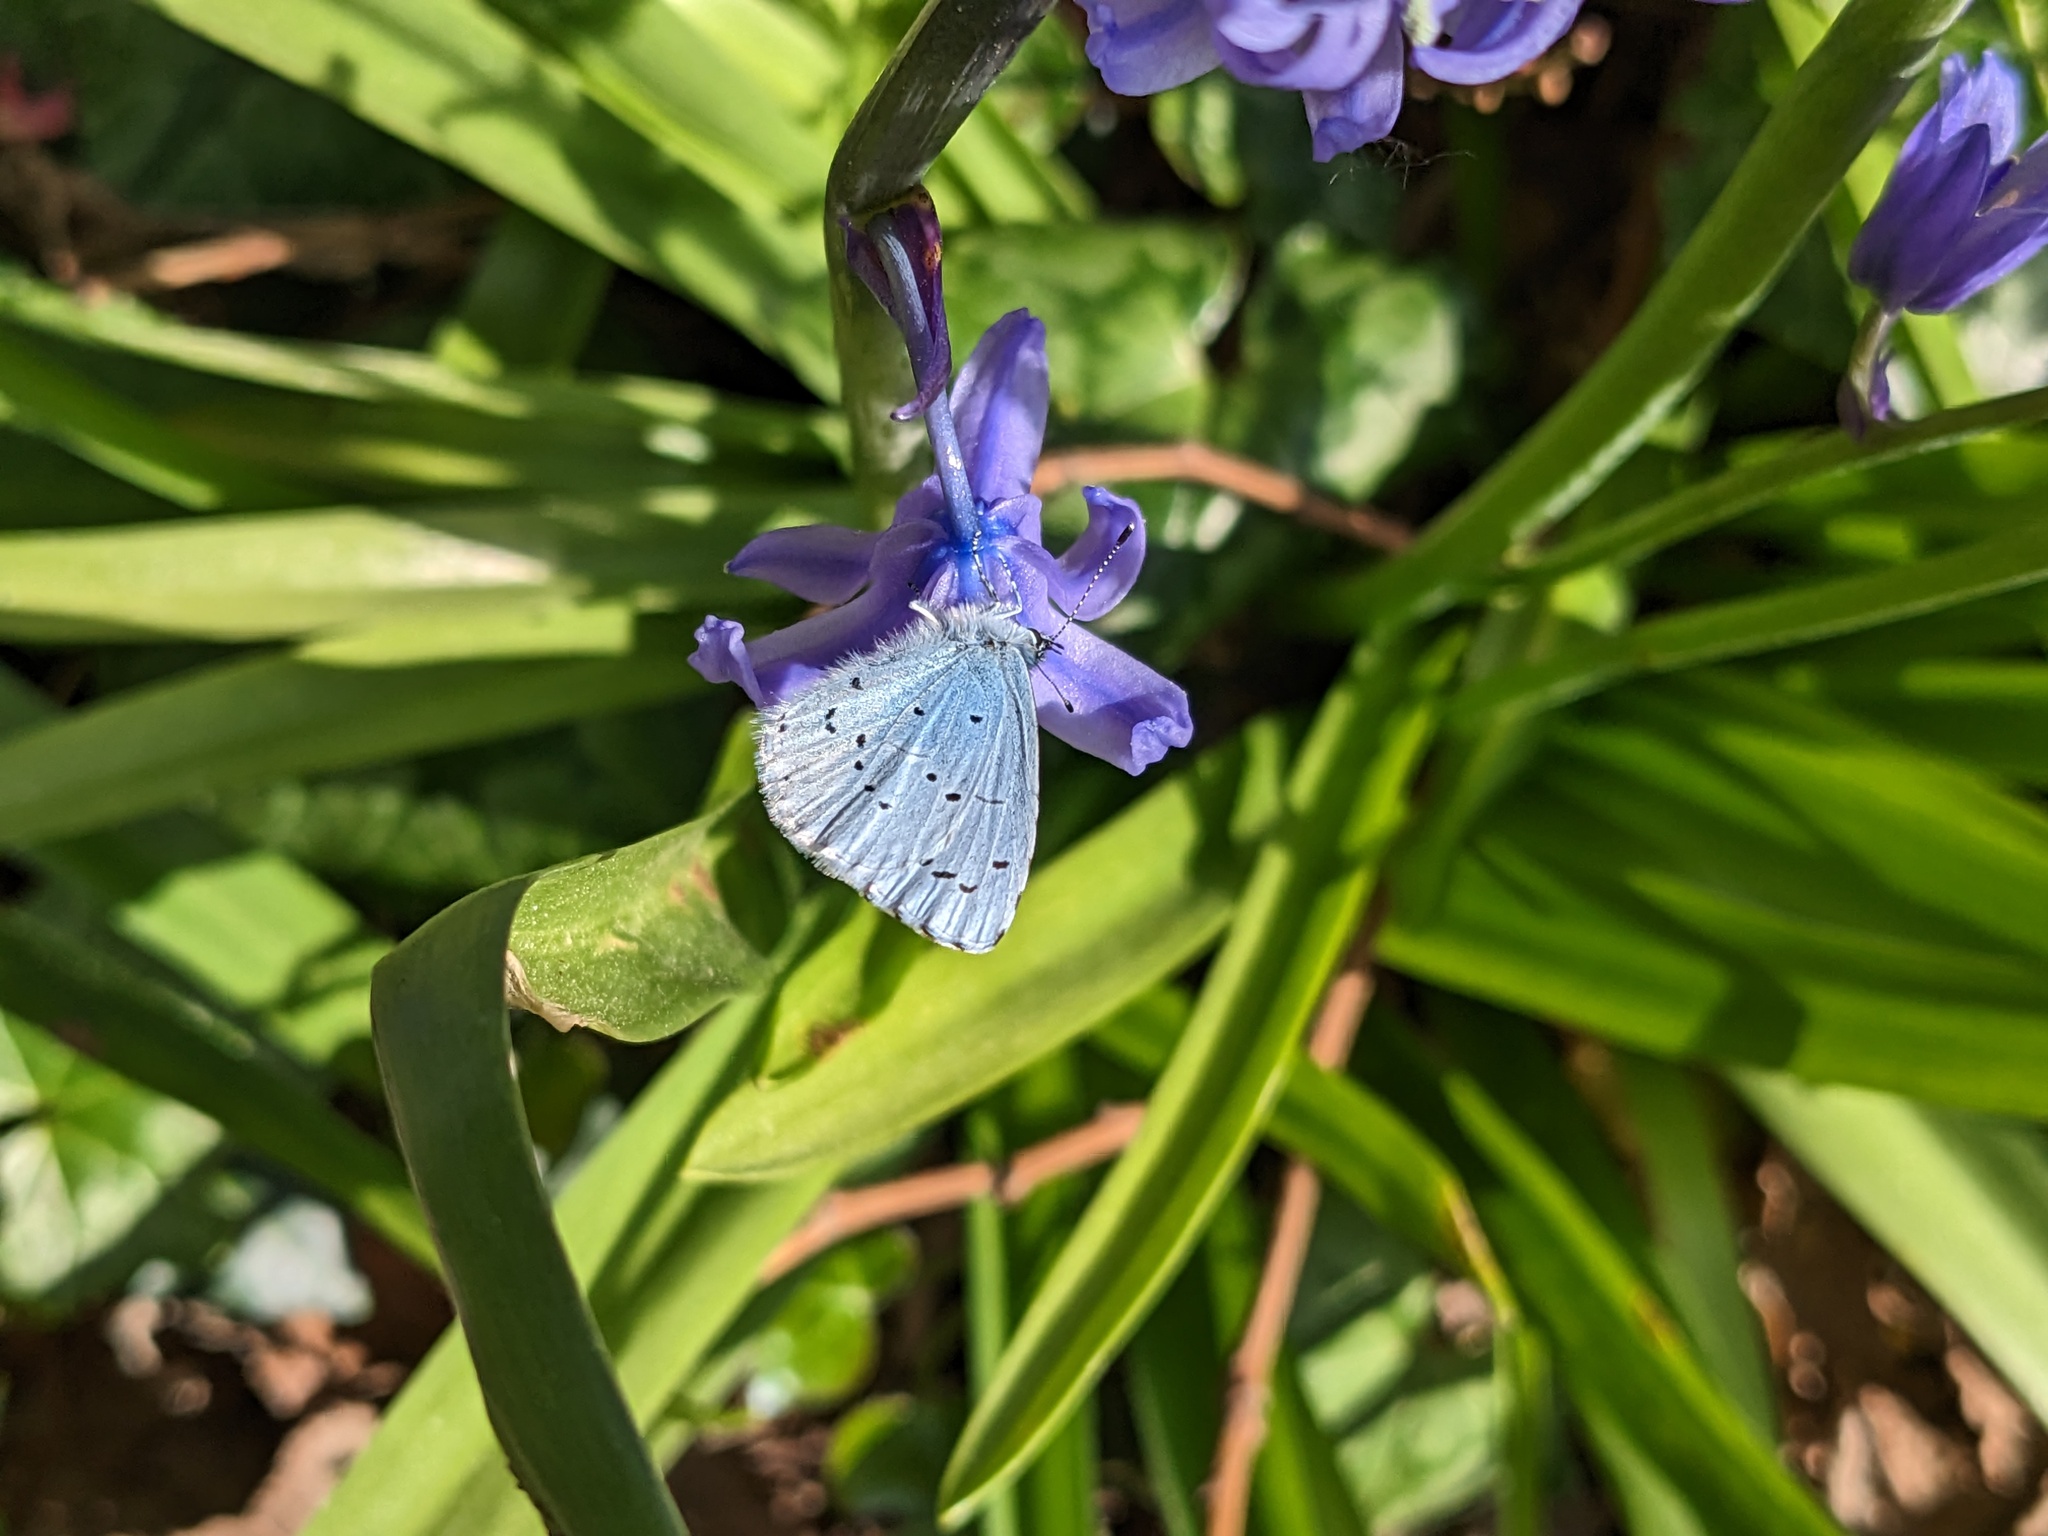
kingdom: Animalia
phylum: Arthropoda
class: Insecta
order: Lepidoptera
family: Lycaenidae
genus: Celastrina
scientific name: Celastrina argiolus
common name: Holly blue
